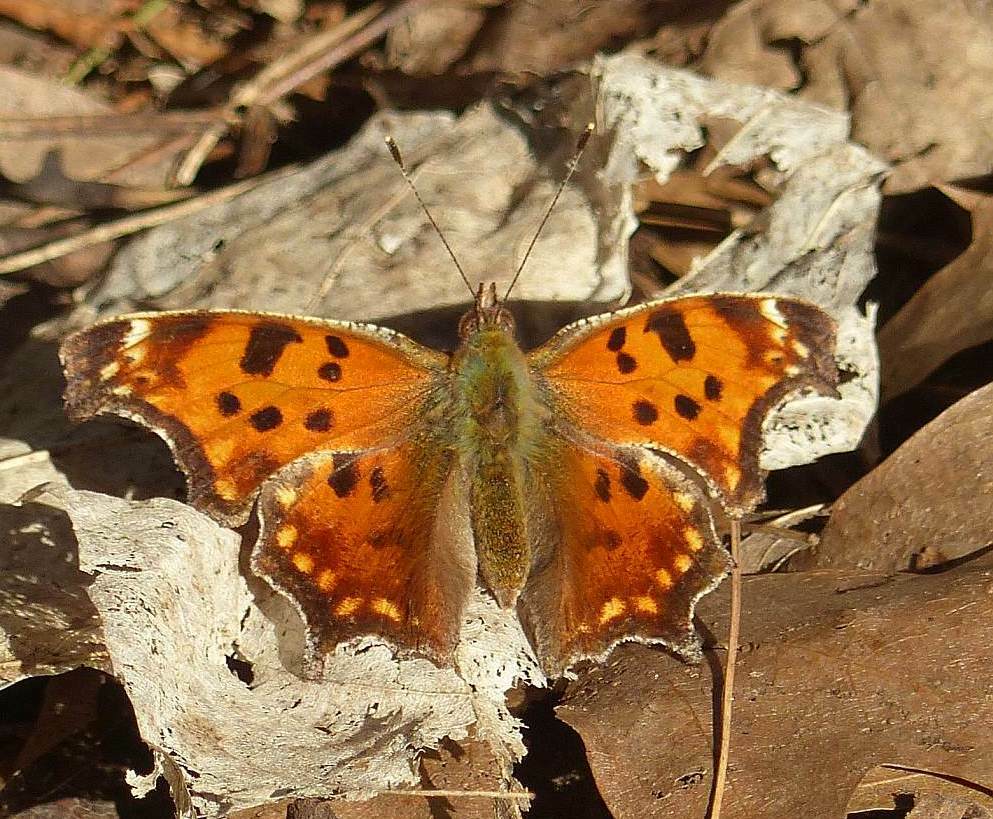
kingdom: Animalia
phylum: Arthropoda
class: Insecta
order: Lepidoptera
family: Nymphalidae
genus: Polygonia
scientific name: Polygonia comma
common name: Eastern comma
